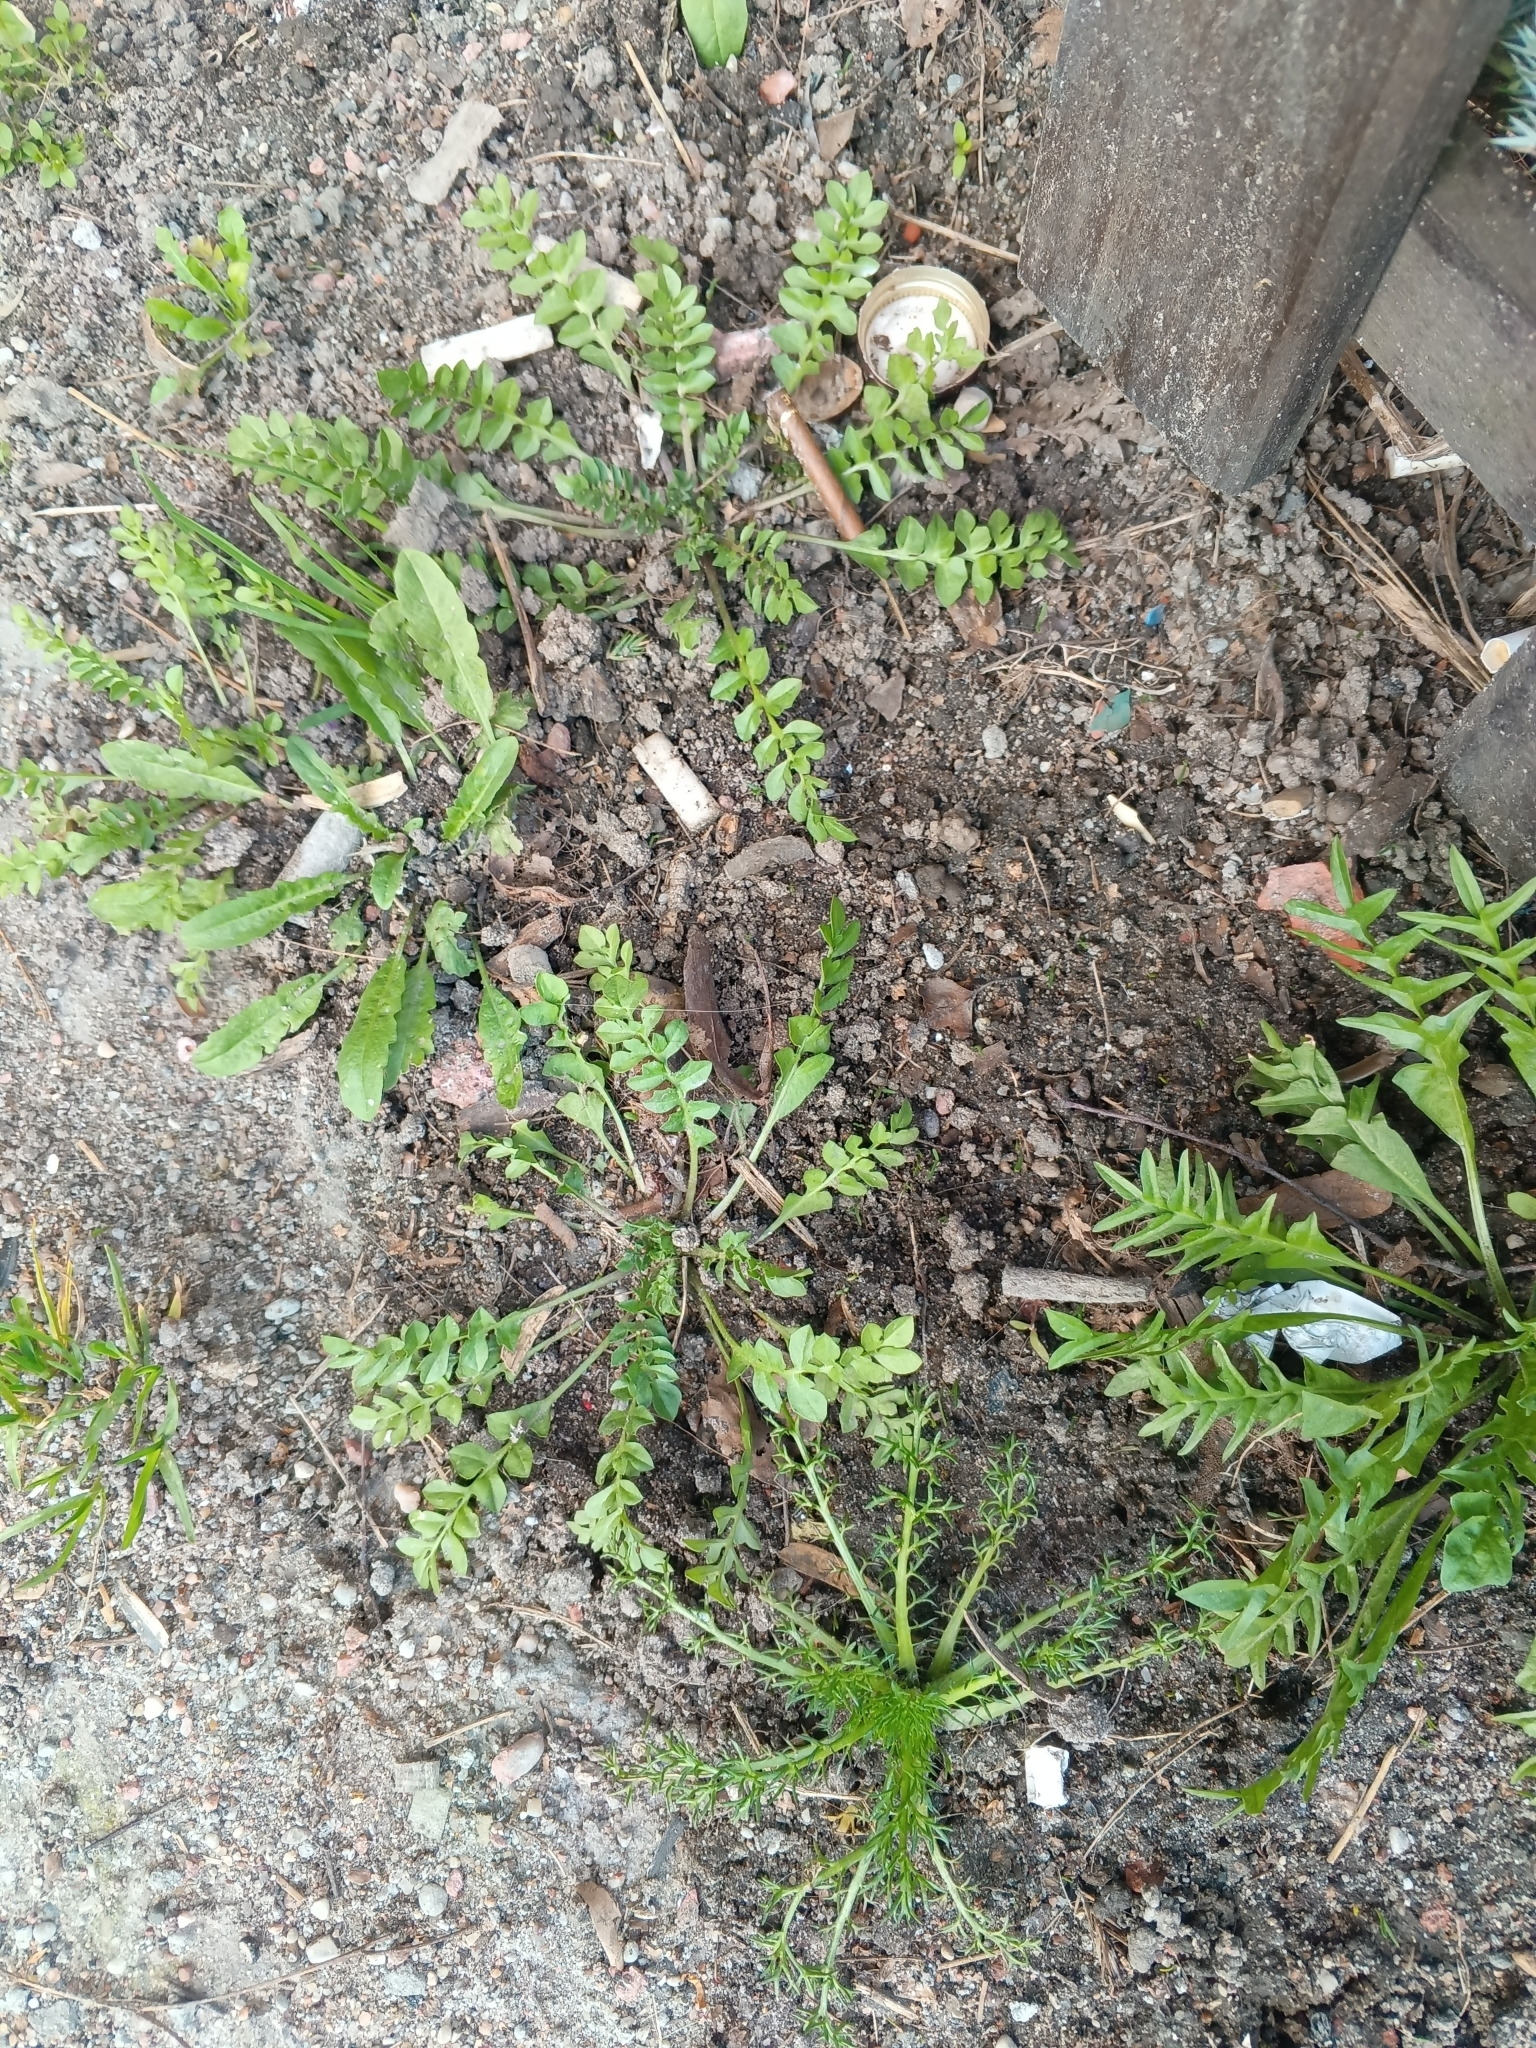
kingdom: Plantae
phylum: Tracheophyta
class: Magnoliopsida
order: Brassicales
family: Brassicaceae
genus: Capsella
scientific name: Capsella bursa-pastoris
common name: Shepherd's purse
